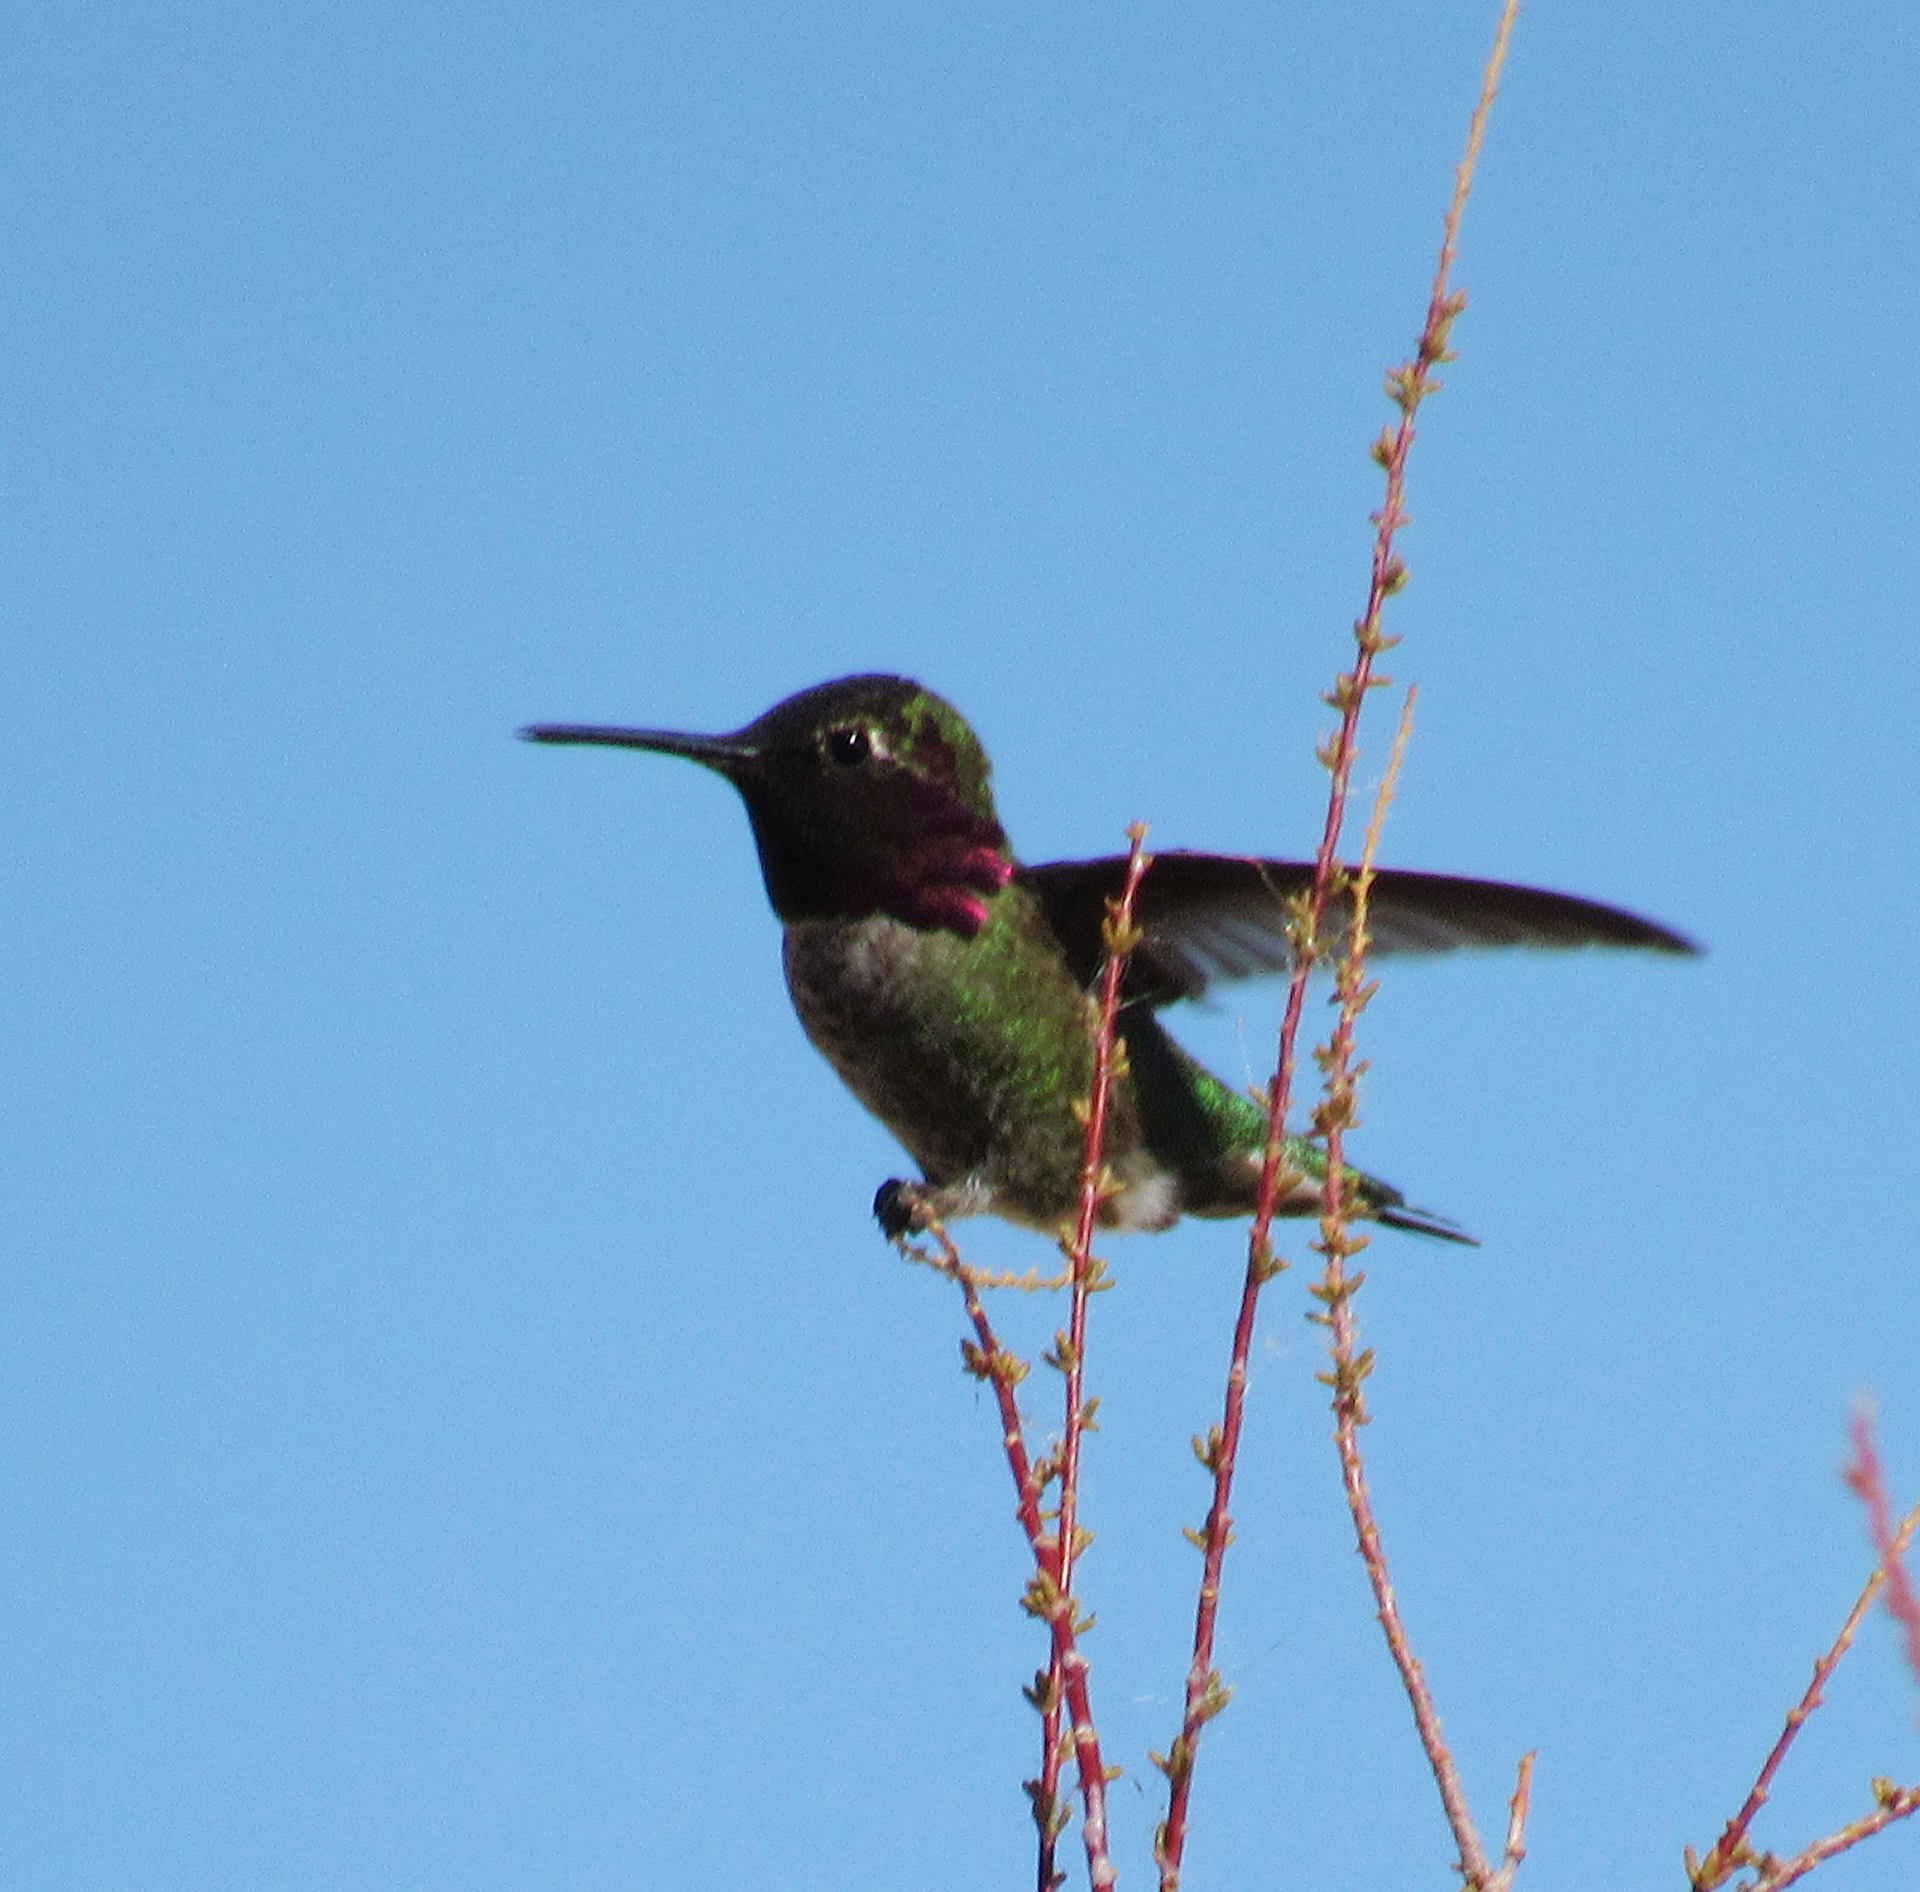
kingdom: Animalia
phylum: Chordata
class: Aves
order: Apodiformes
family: Trochilidae
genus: Calypte
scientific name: Calypte anna
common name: Anna's hummingbird
